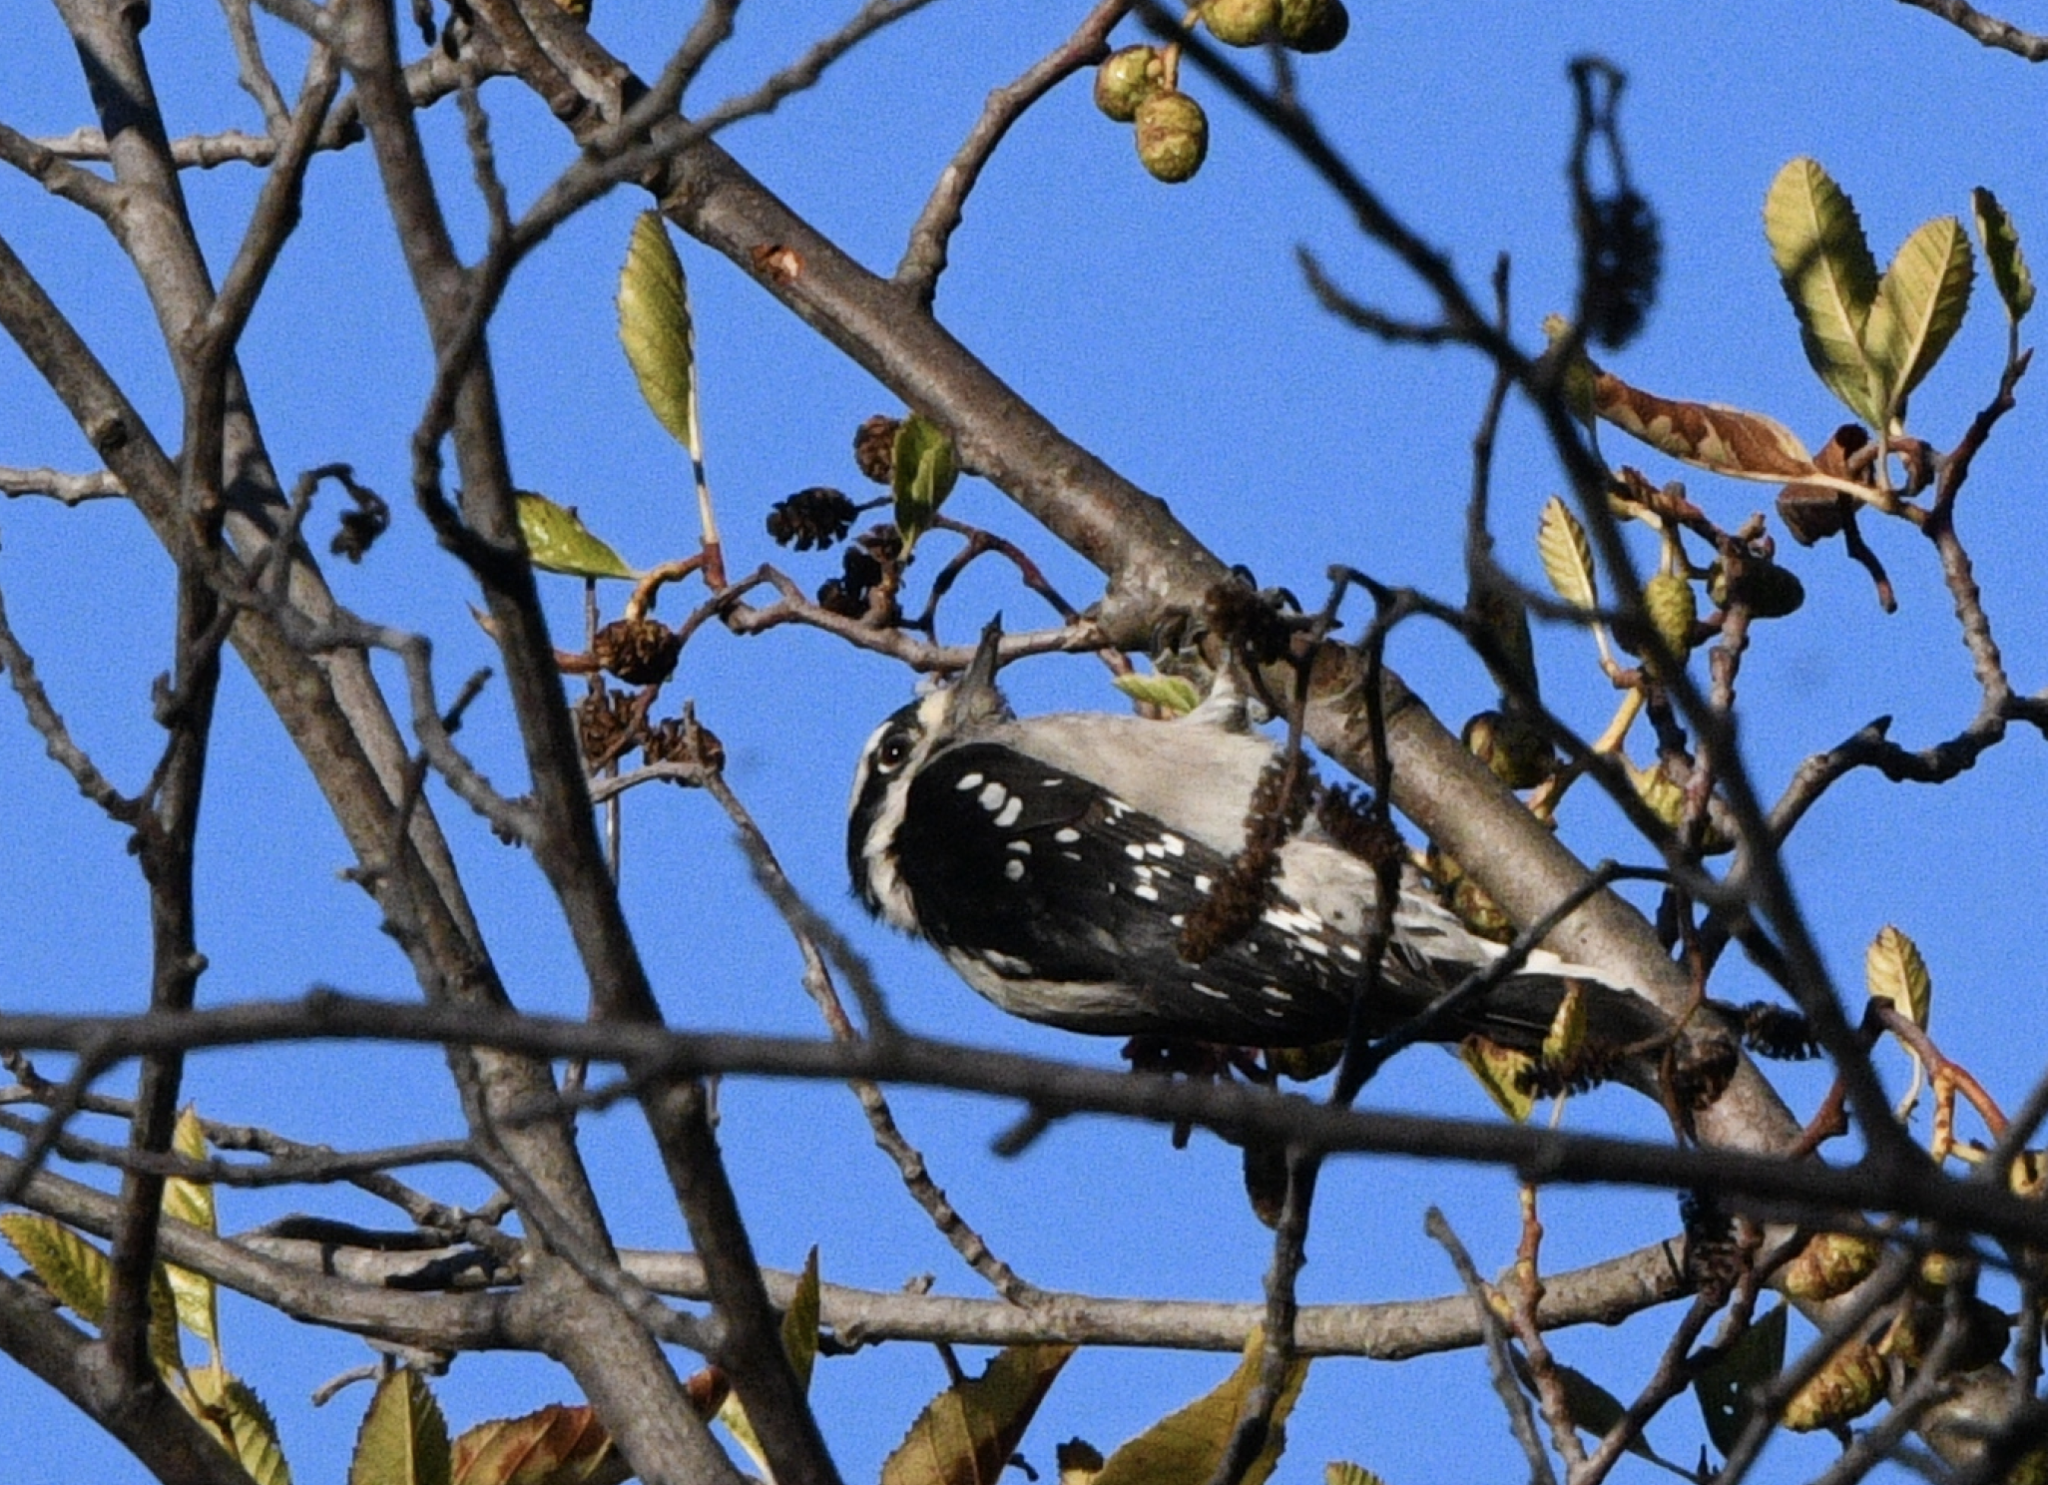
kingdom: Animalia
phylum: Chordata
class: Aves
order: Piciformes
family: Picidae
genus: Dryobates
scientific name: Dryobates pubescens
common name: Downy woodpecker
